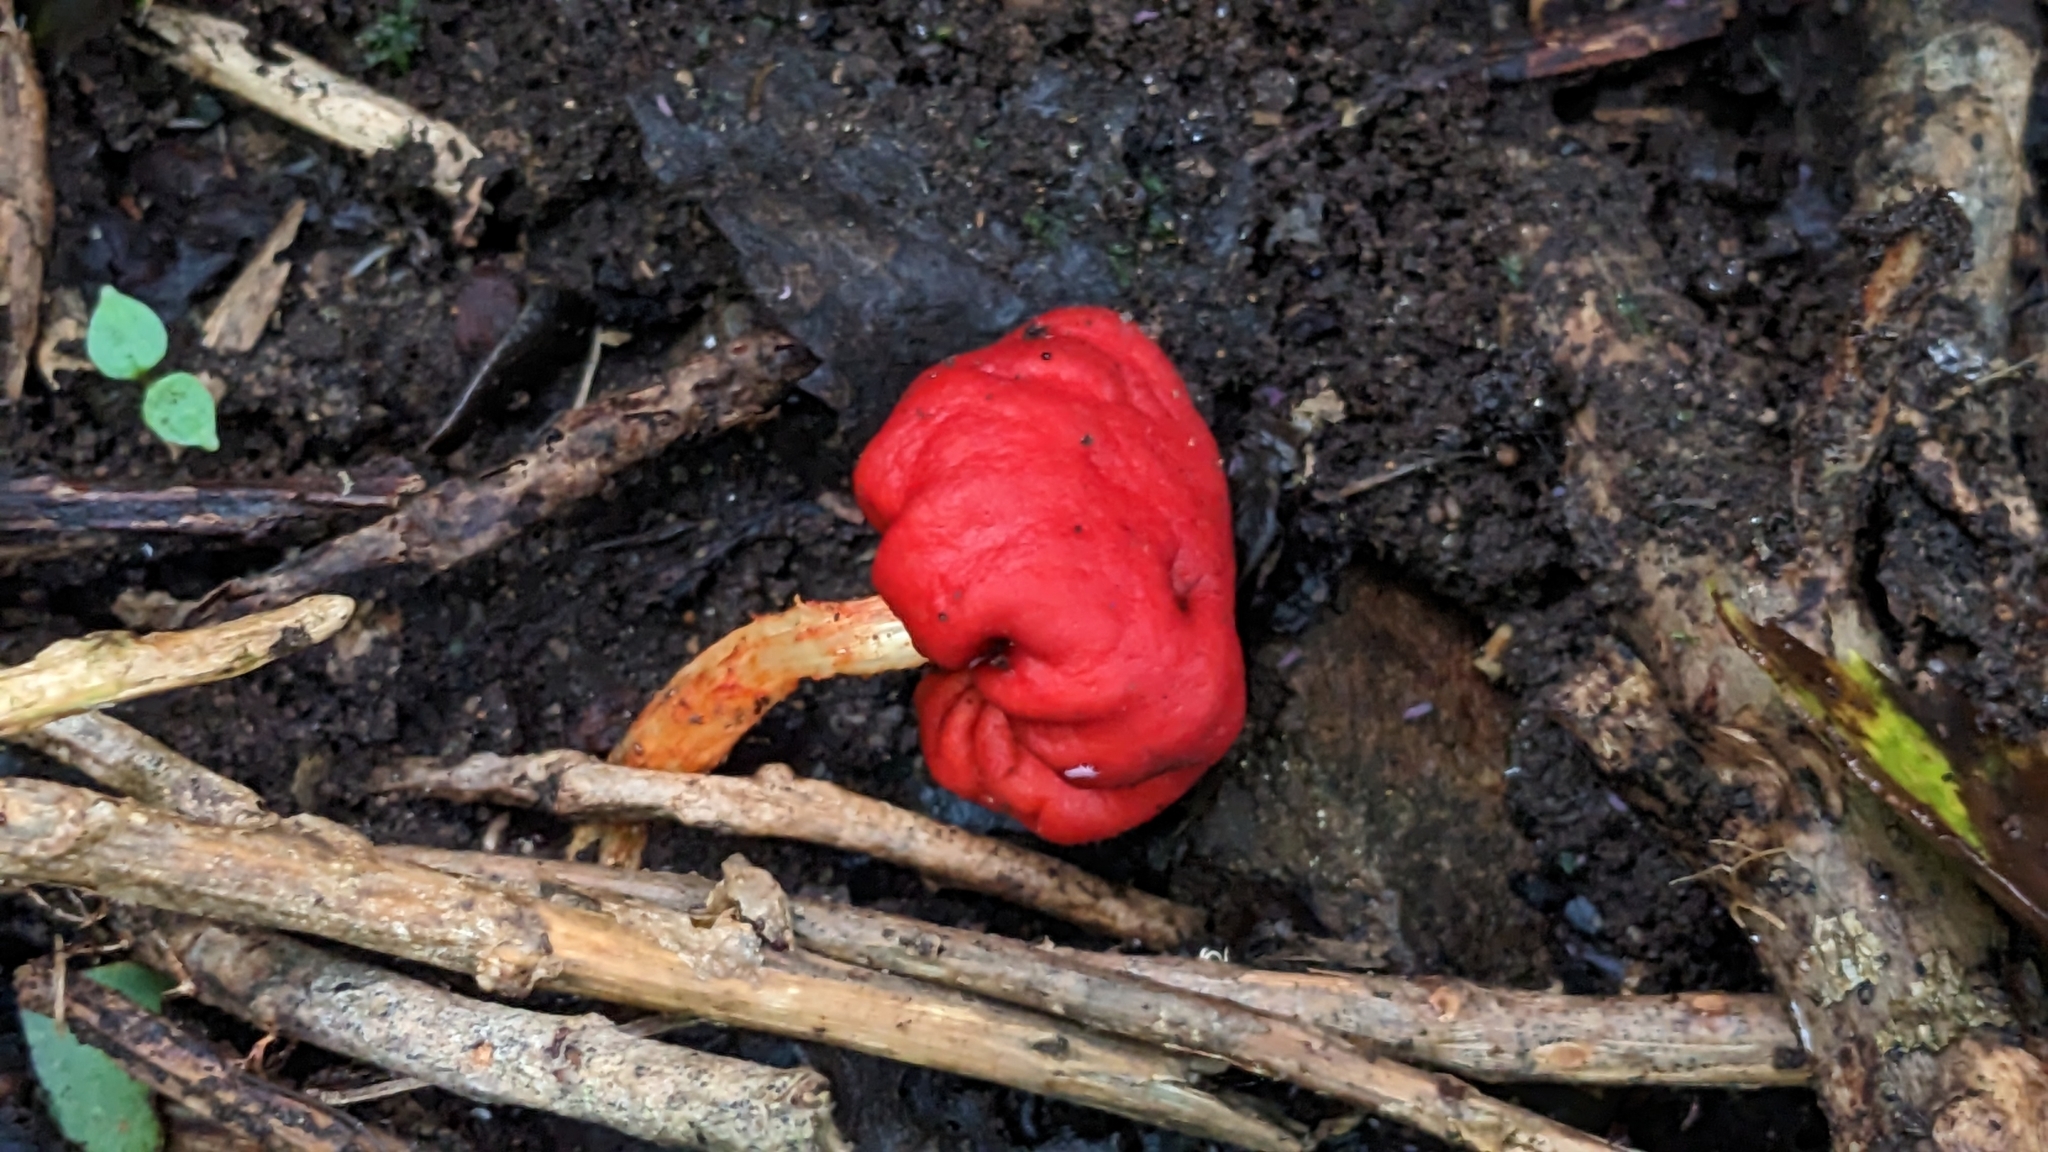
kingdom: Fungi
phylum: Basidiomycota
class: Agaricomycetes
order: Agaricales
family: Strophariaceae
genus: Leratiomyces
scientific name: Leratiomyces erythrocephalus
